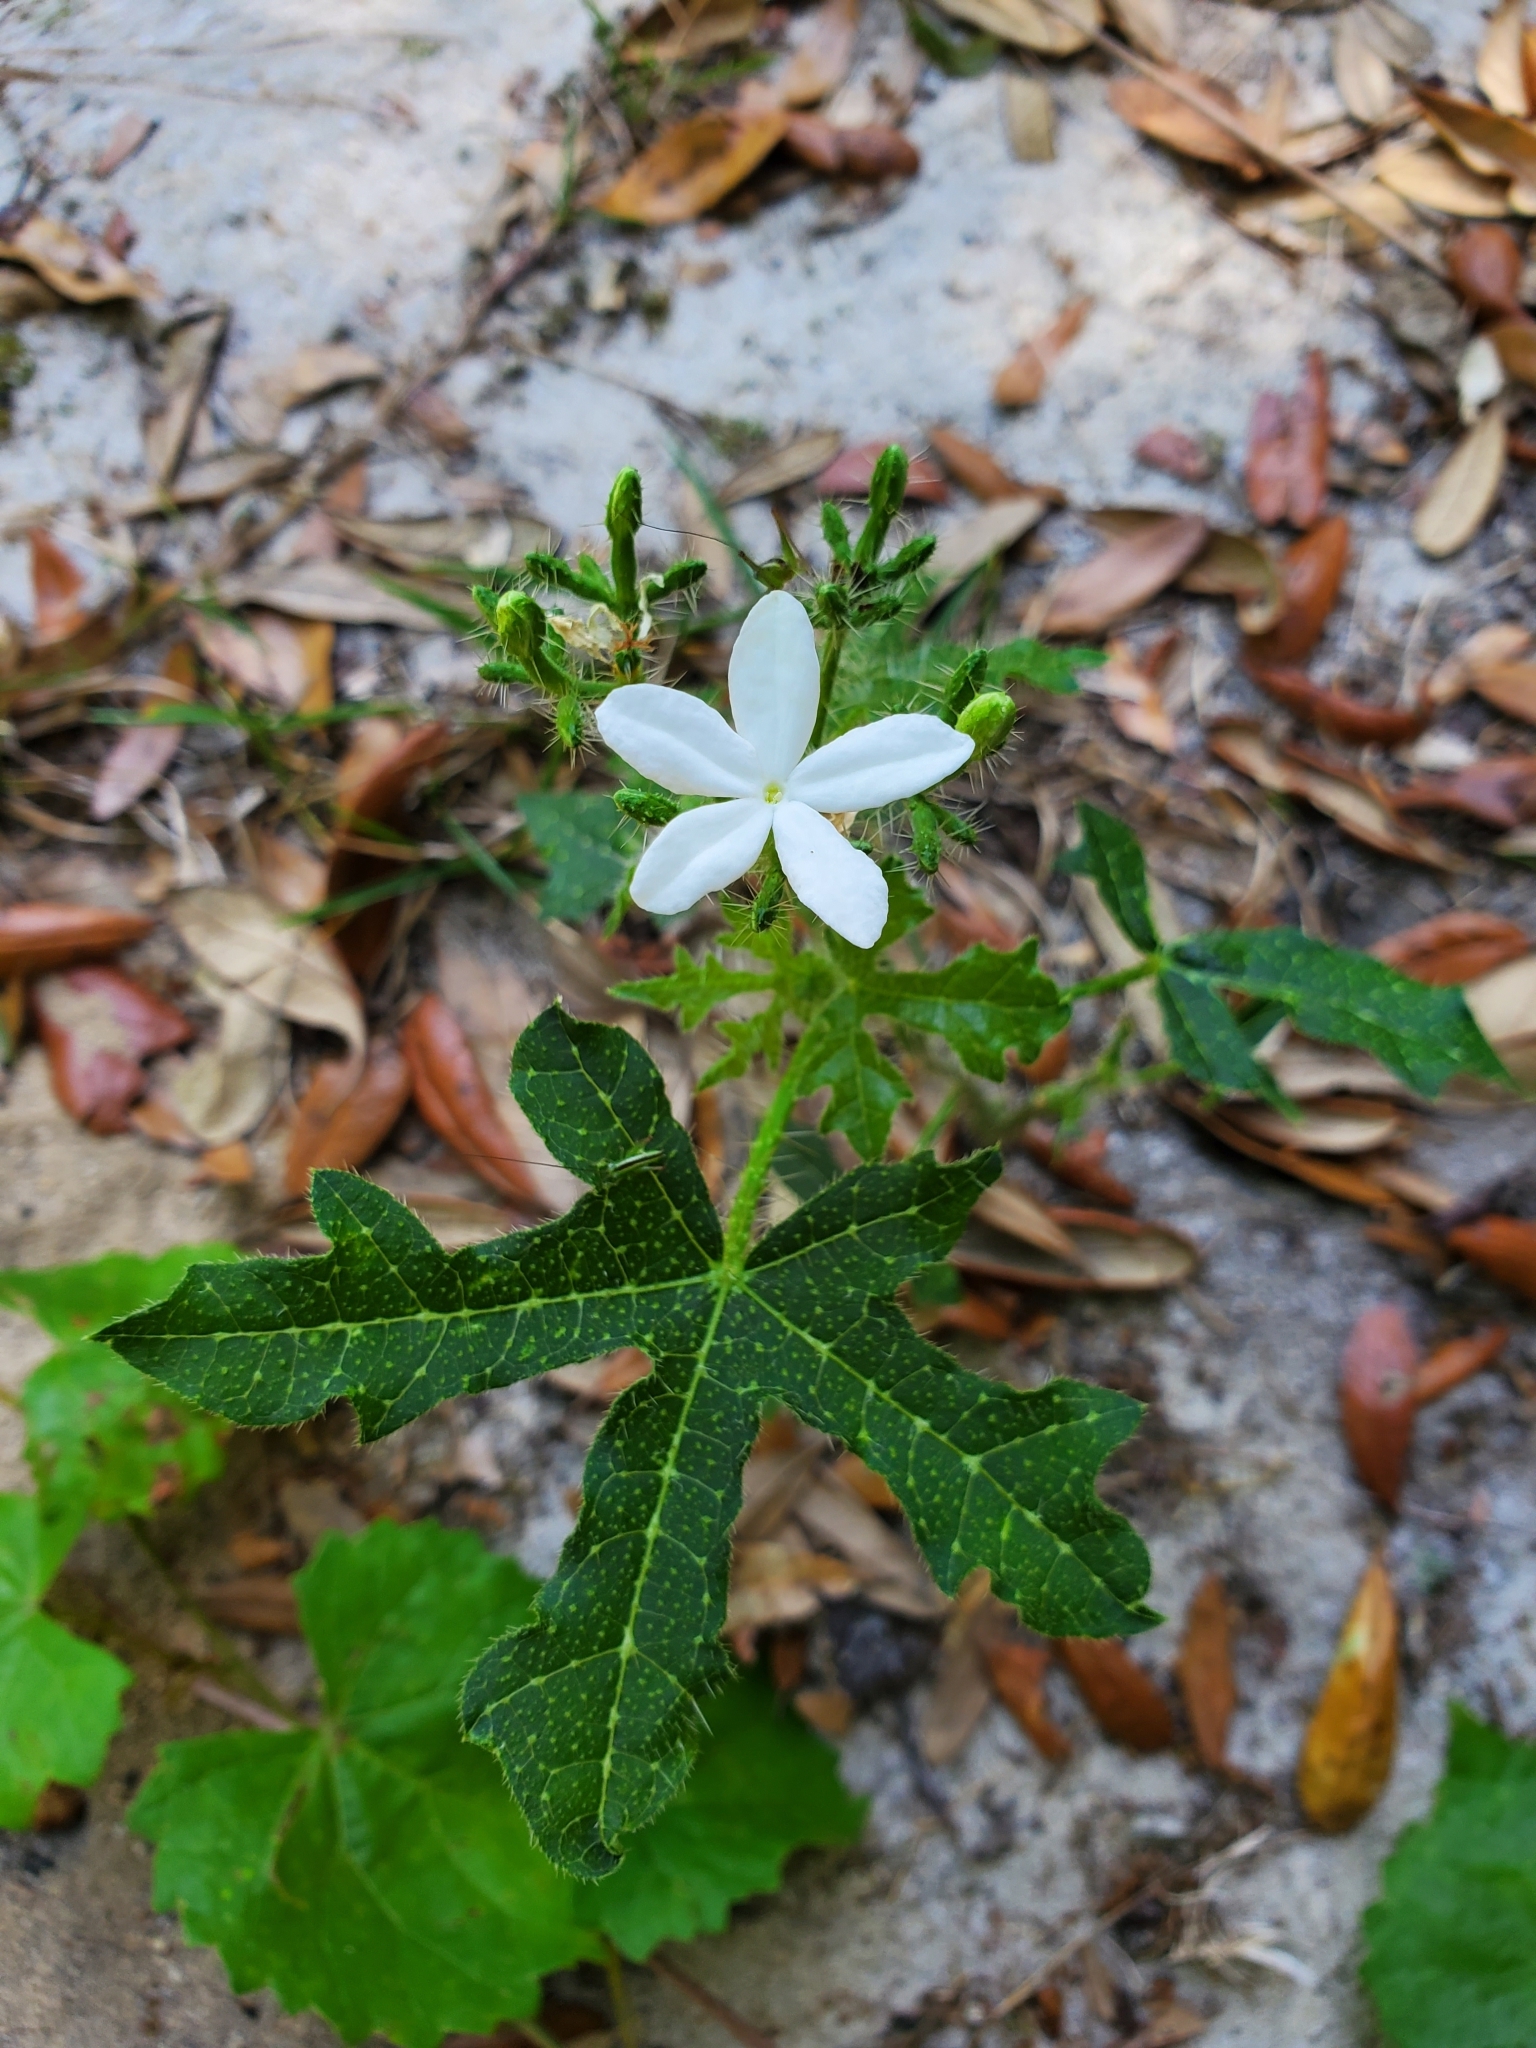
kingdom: Plantae
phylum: Tracheophyta
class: Magnoliopsida
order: Malpighiales
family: Euphorbiaceae
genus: Cnidoscolus
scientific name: Cnidoscolus stimulosus
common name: Bull-nettle
